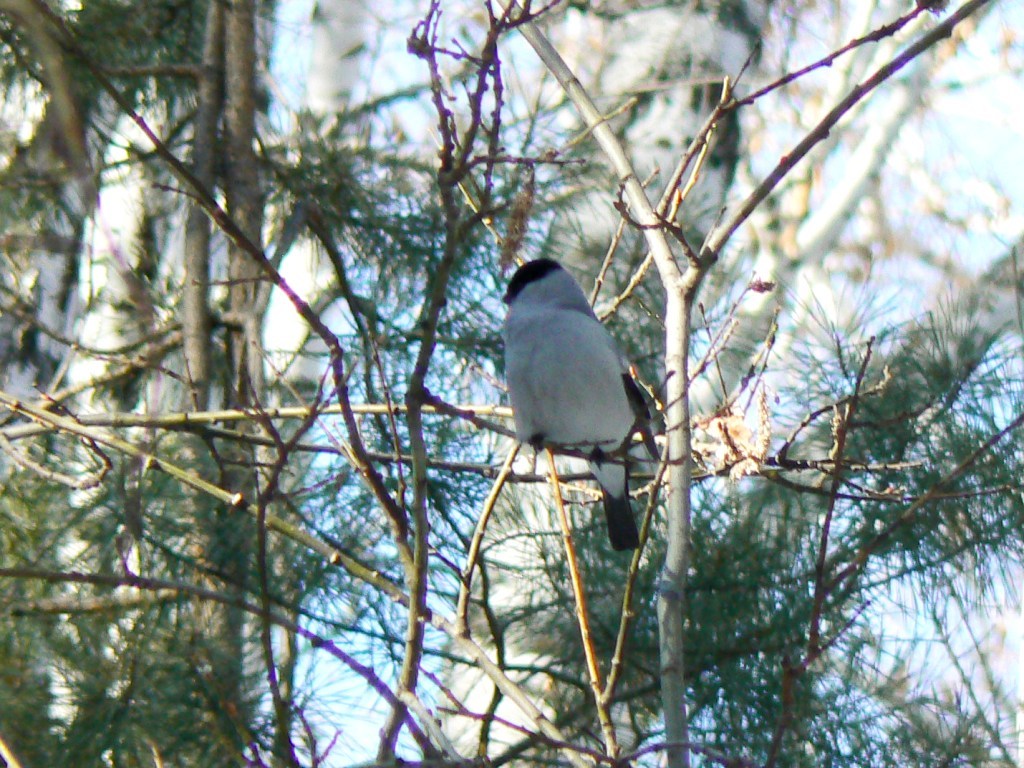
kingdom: Animalia
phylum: Chordata
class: Aves
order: Passeriformes
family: Fringillidae
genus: Pyrrhula
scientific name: Pyrrhula pyrrhula
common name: Eurasian bullfinch
